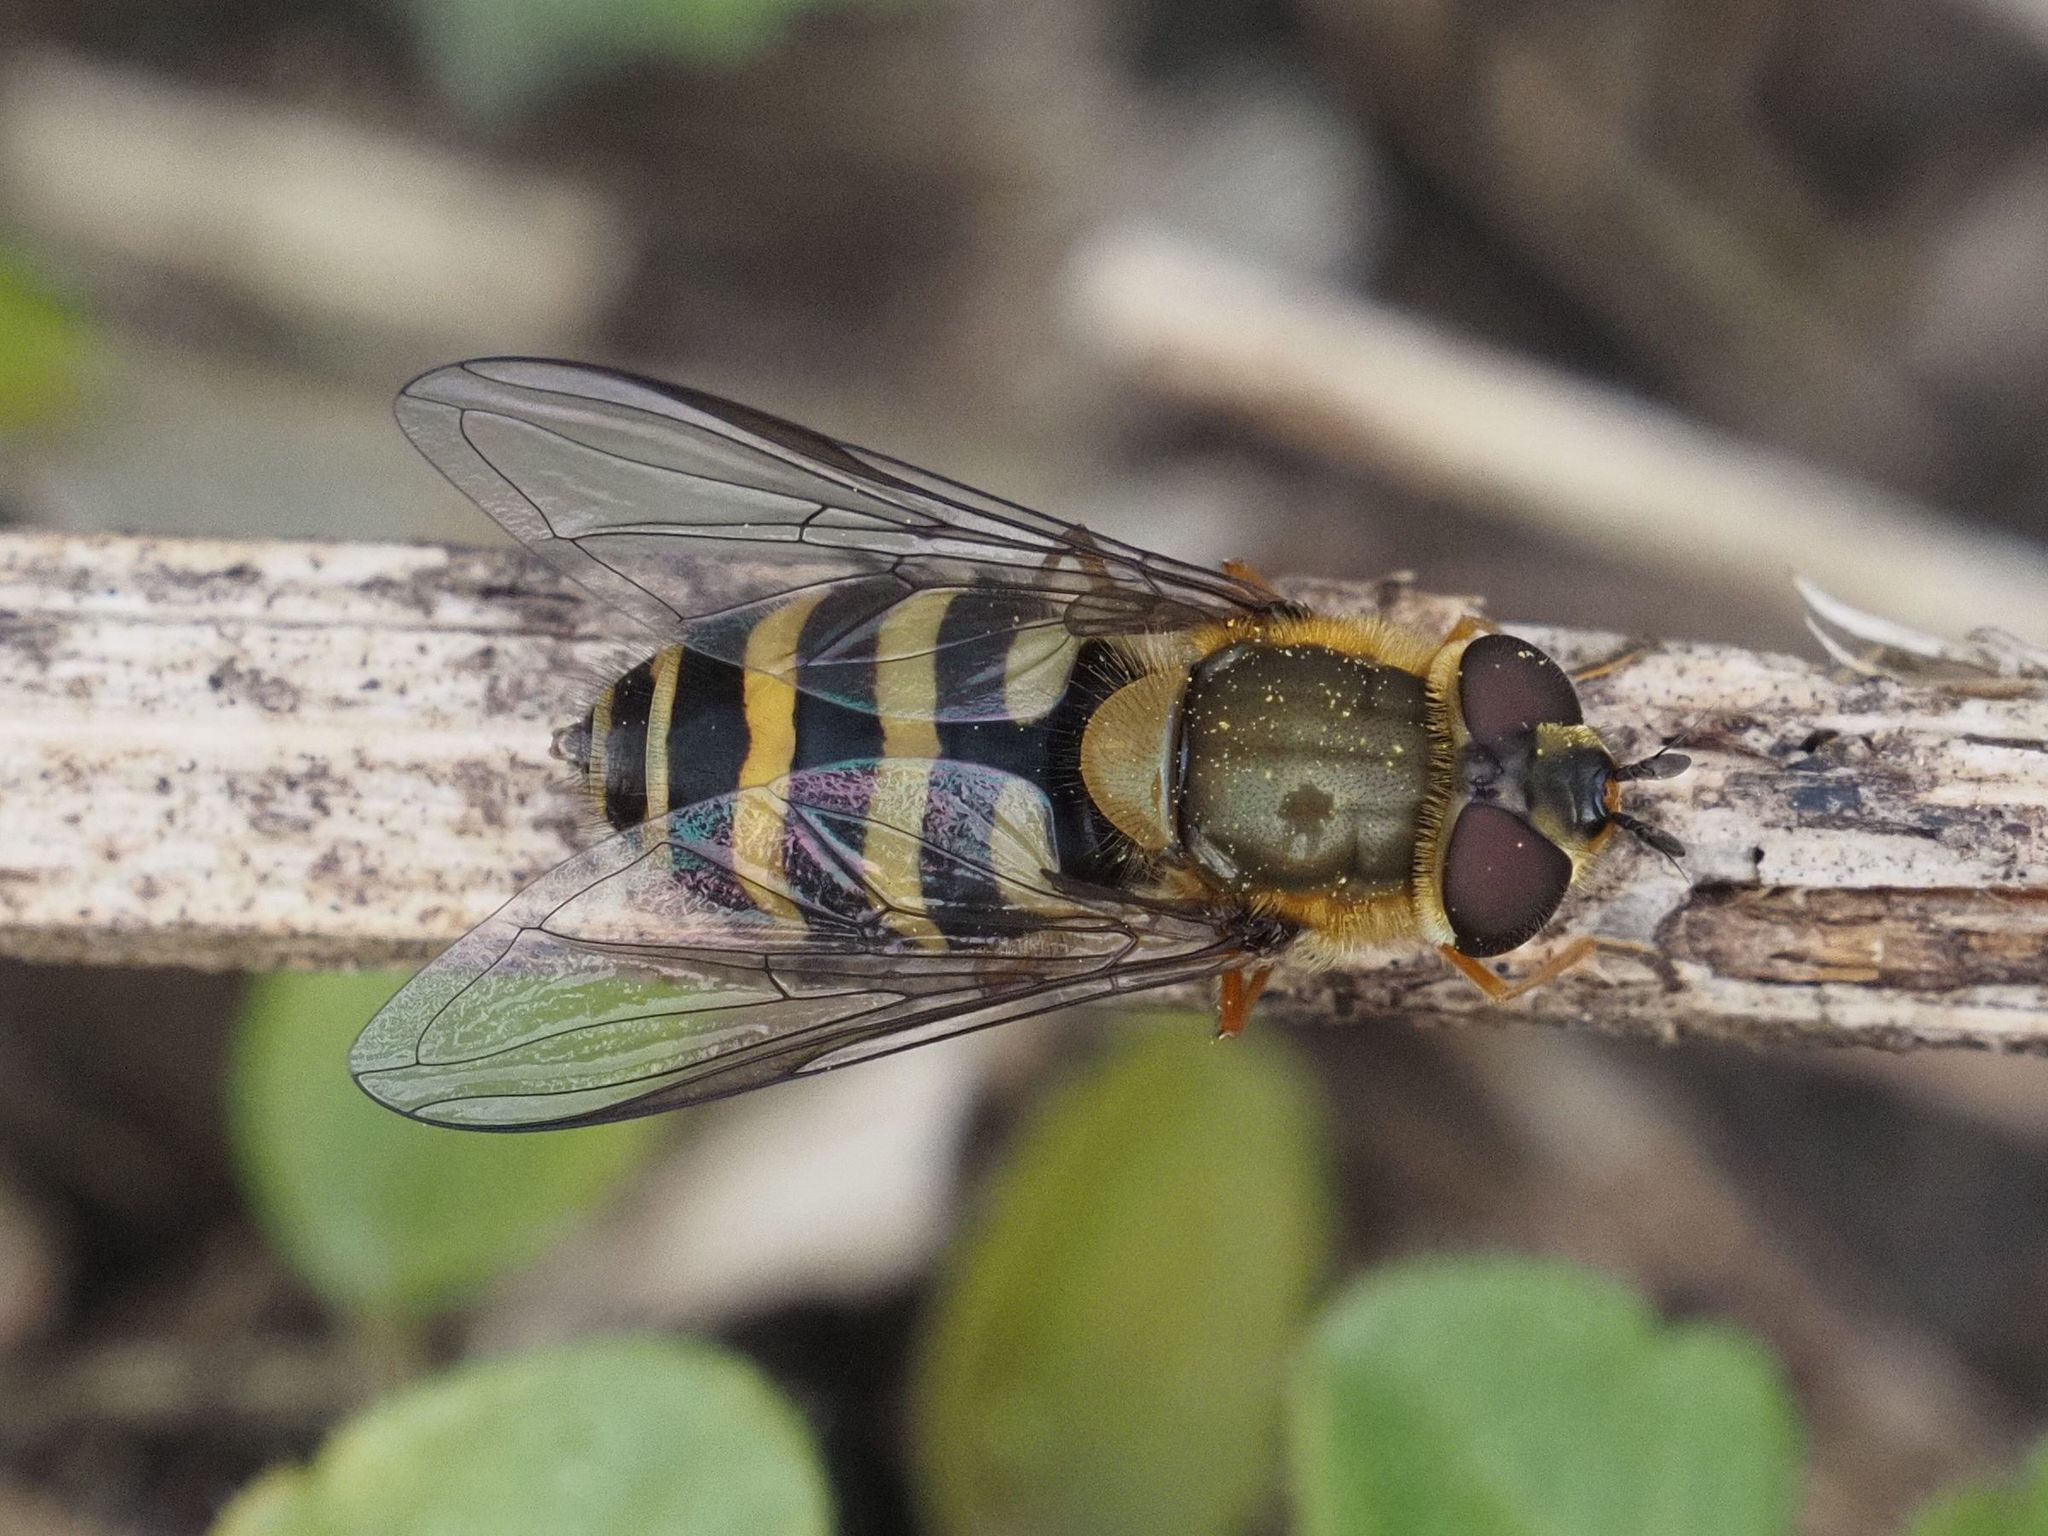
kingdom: Animalia
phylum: Arthropoda
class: Insecta
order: Diptera
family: Syrphidae
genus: Syrphus
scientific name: Syrphus torvus
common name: Hairy-eyed flower fly
